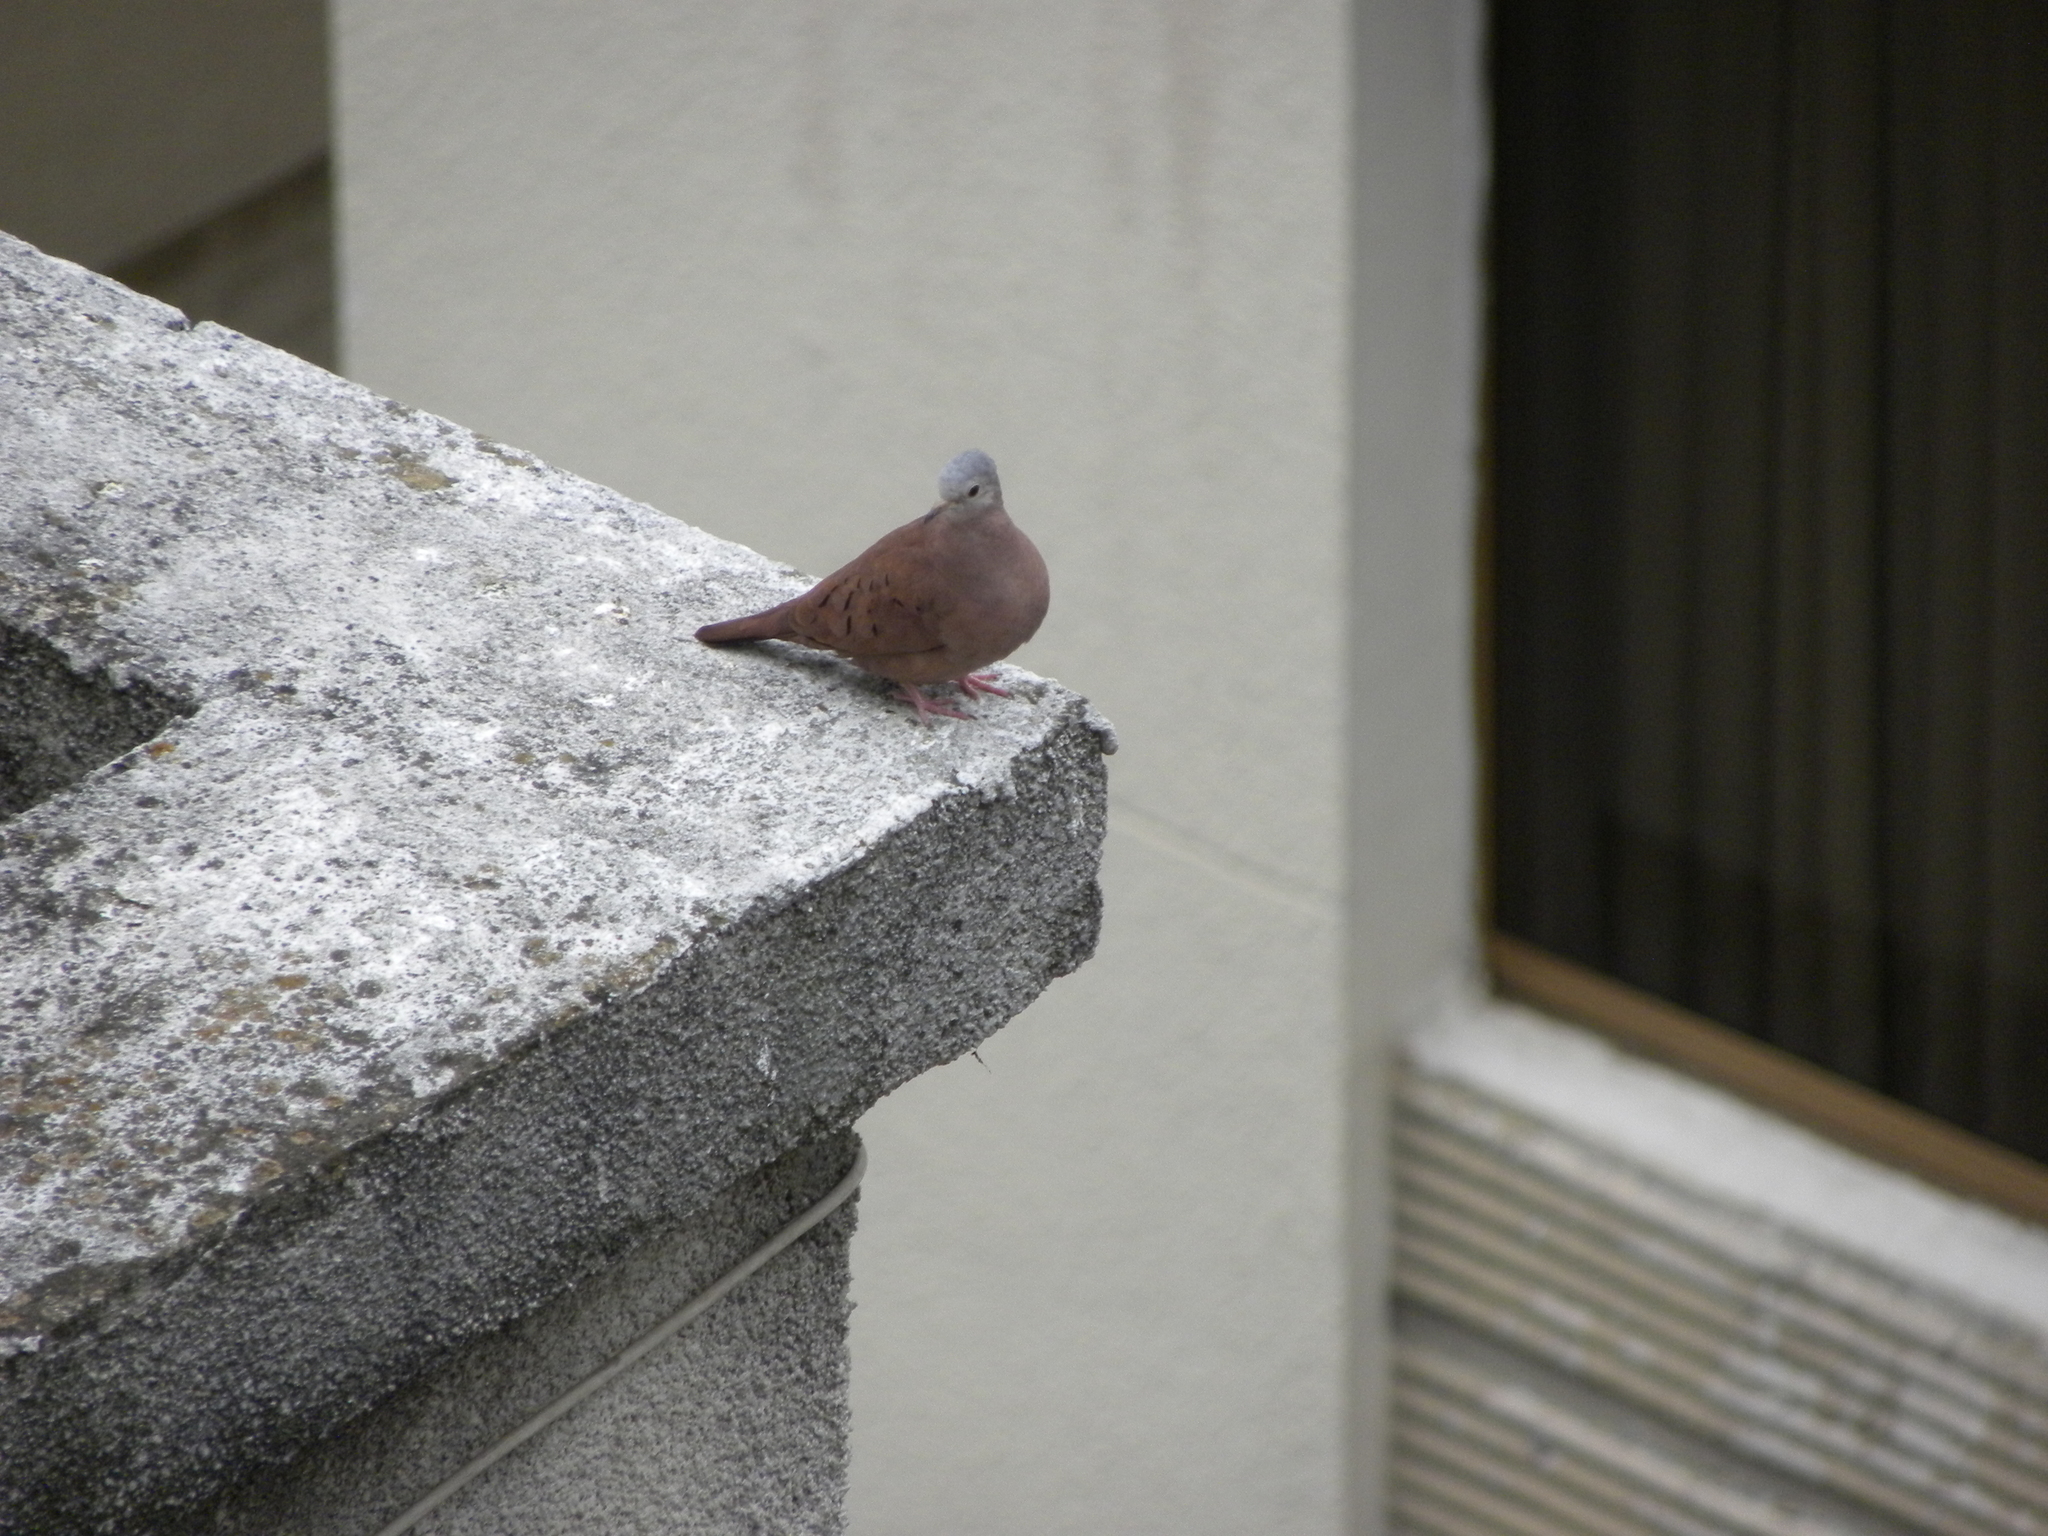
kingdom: Animalia
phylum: Chordata
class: Aves
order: Columbiformes
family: Columbidae
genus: Columbina
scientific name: Columbina talpacoti
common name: Ruddy ground dove
